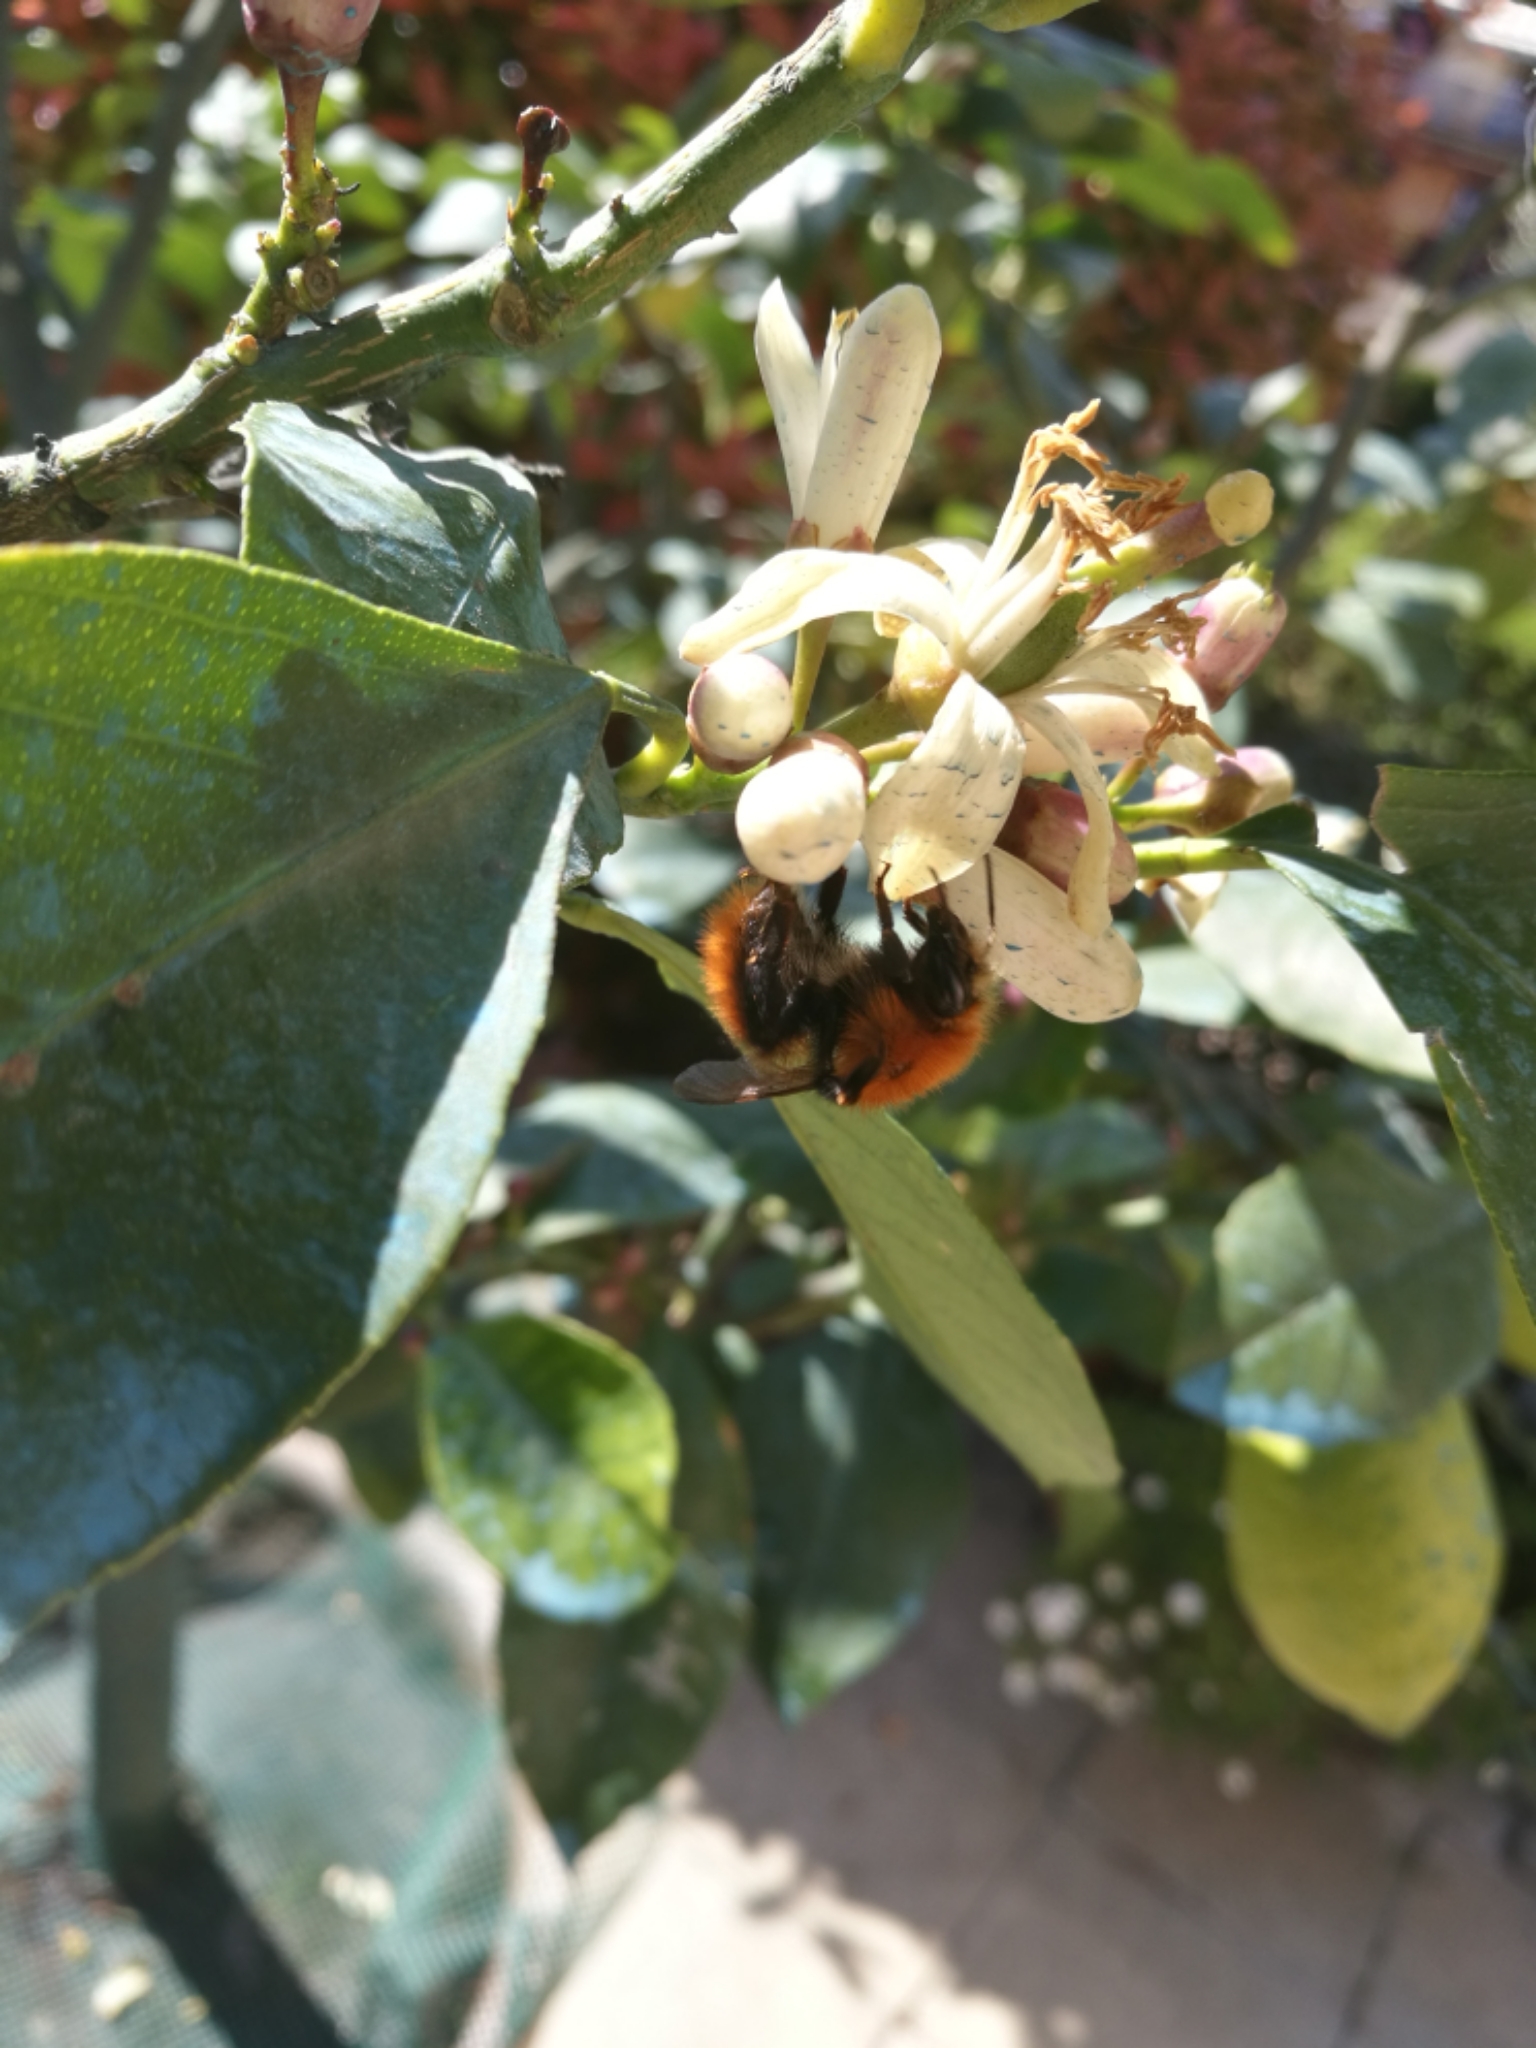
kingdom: Animalia
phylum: Arthropoda
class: Insecta
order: Hymenoptera
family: Apidae
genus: Bombus
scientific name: Bombus pascuorum
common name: Common carder bee
